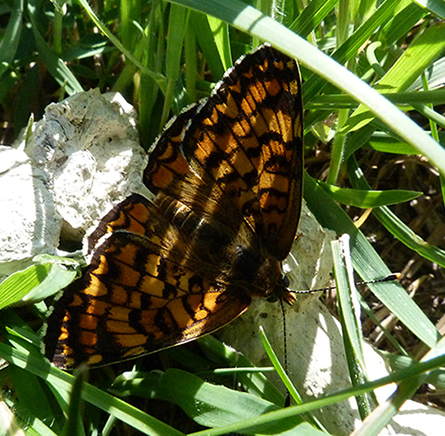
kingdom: Animalia
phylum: Arthropoda
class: Insecta
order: Lepidoptera
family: Nymphalidae
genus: Melitaea
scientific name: Melitaea phoebe
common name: Knapweed fritillary
